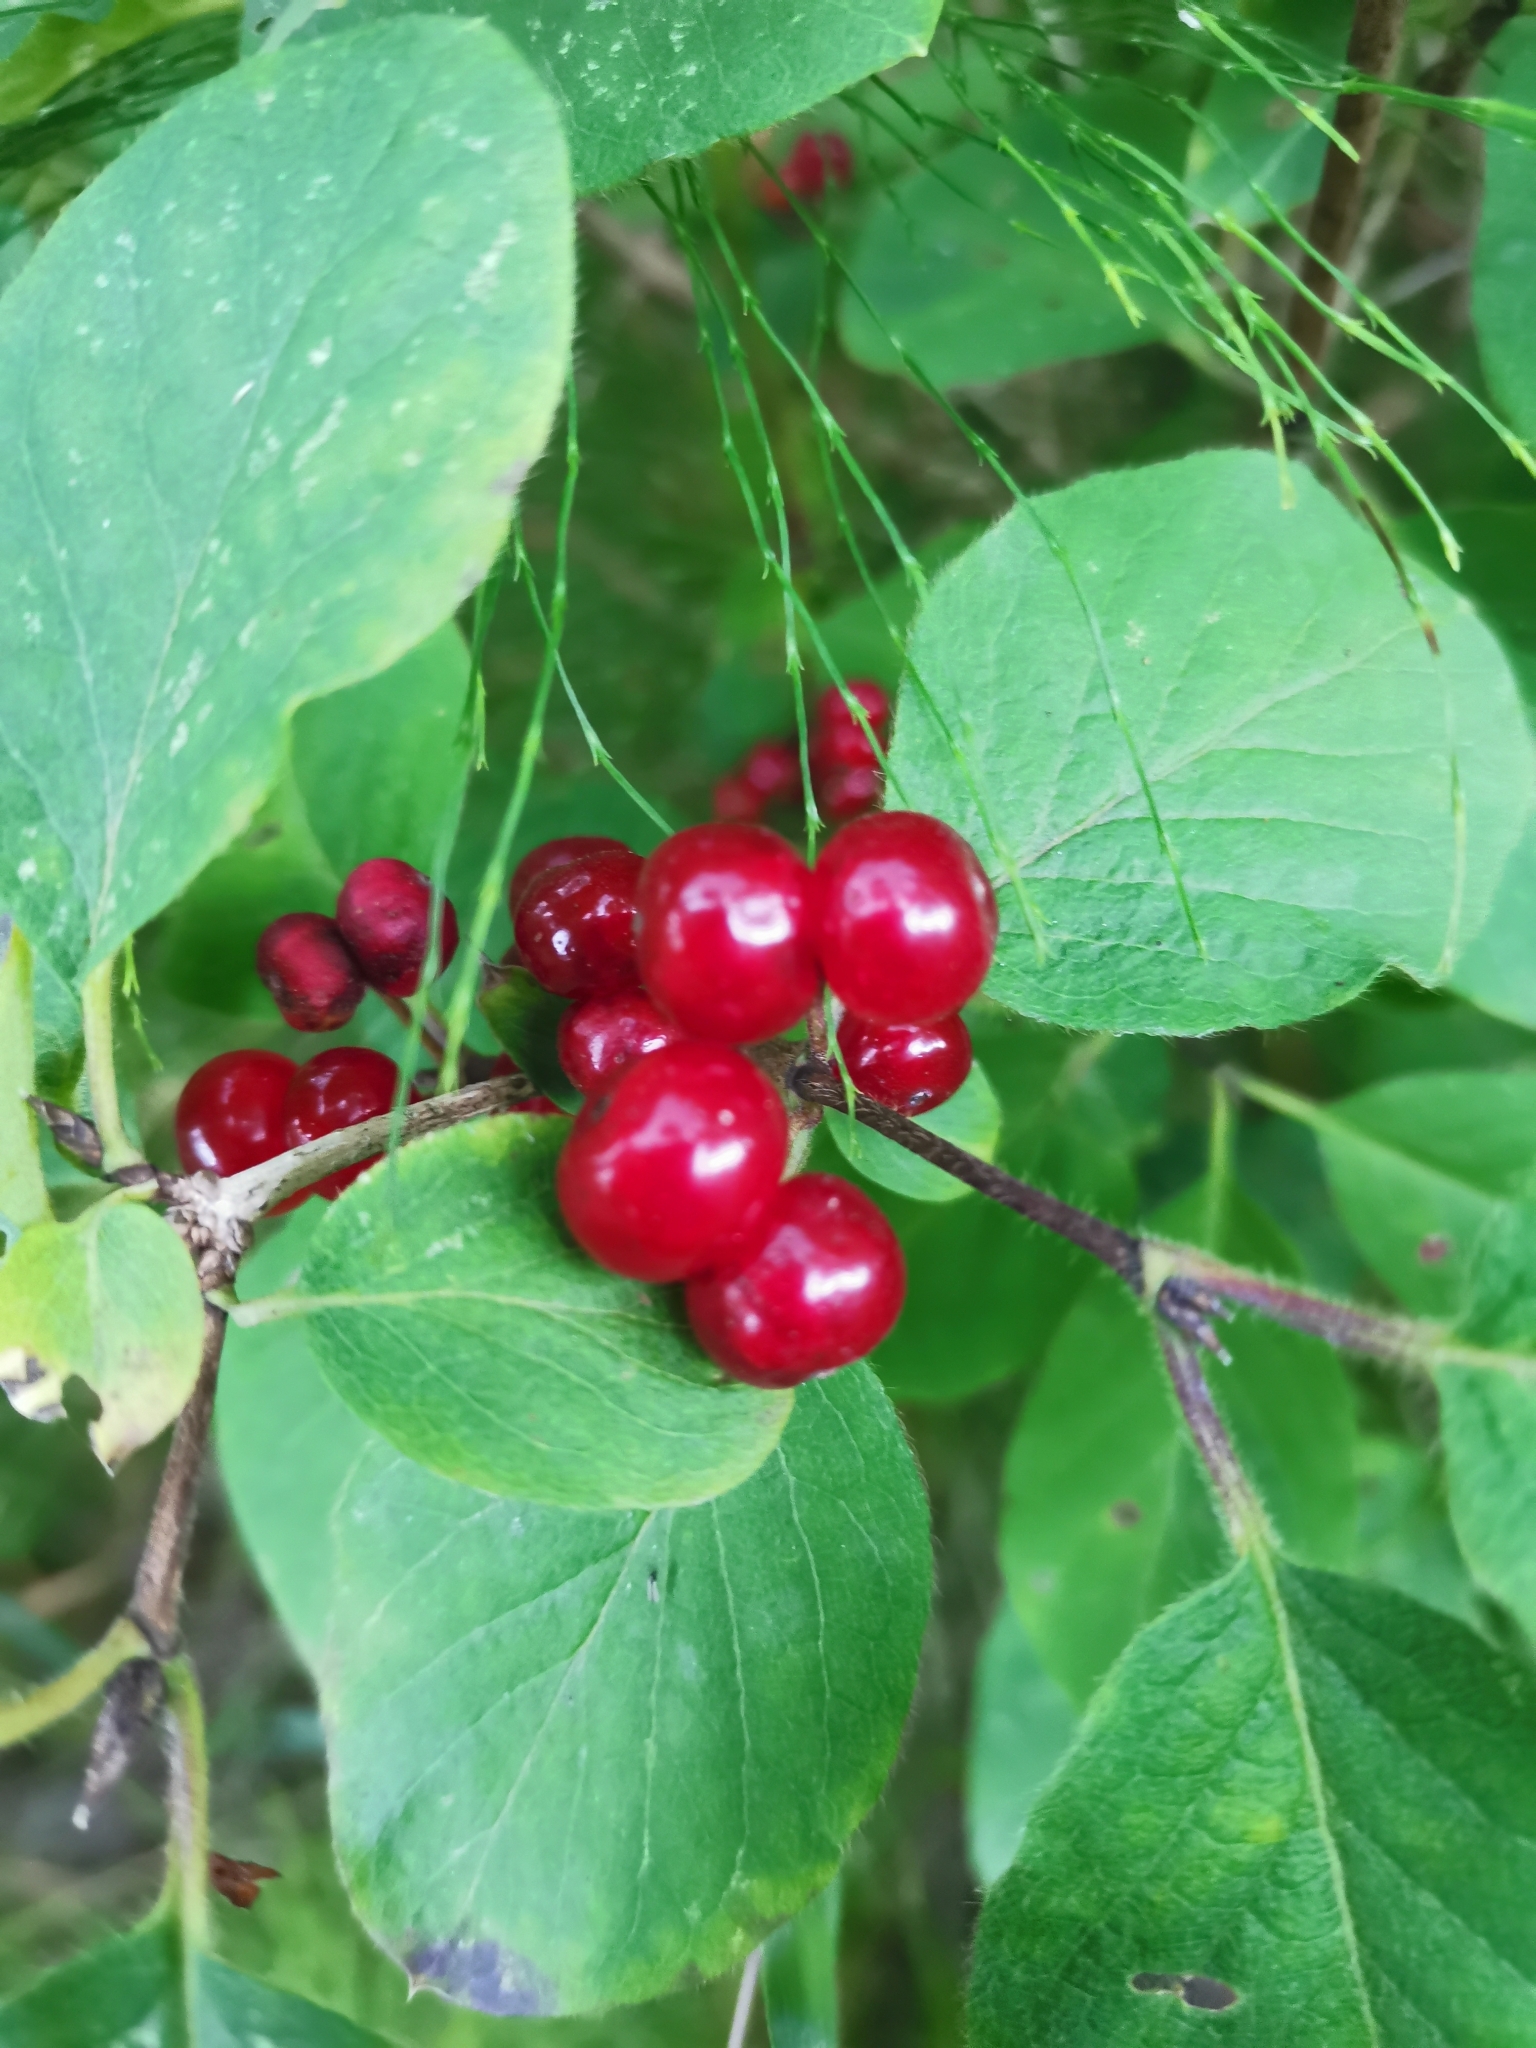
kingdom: Plantae
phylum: Tracheophyta
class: Magnoliopsida
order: Dipsacales
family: Caprifoliaceae
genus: Lonicera
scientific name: Lonicera xylosteum
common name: Fly honeysuckle
